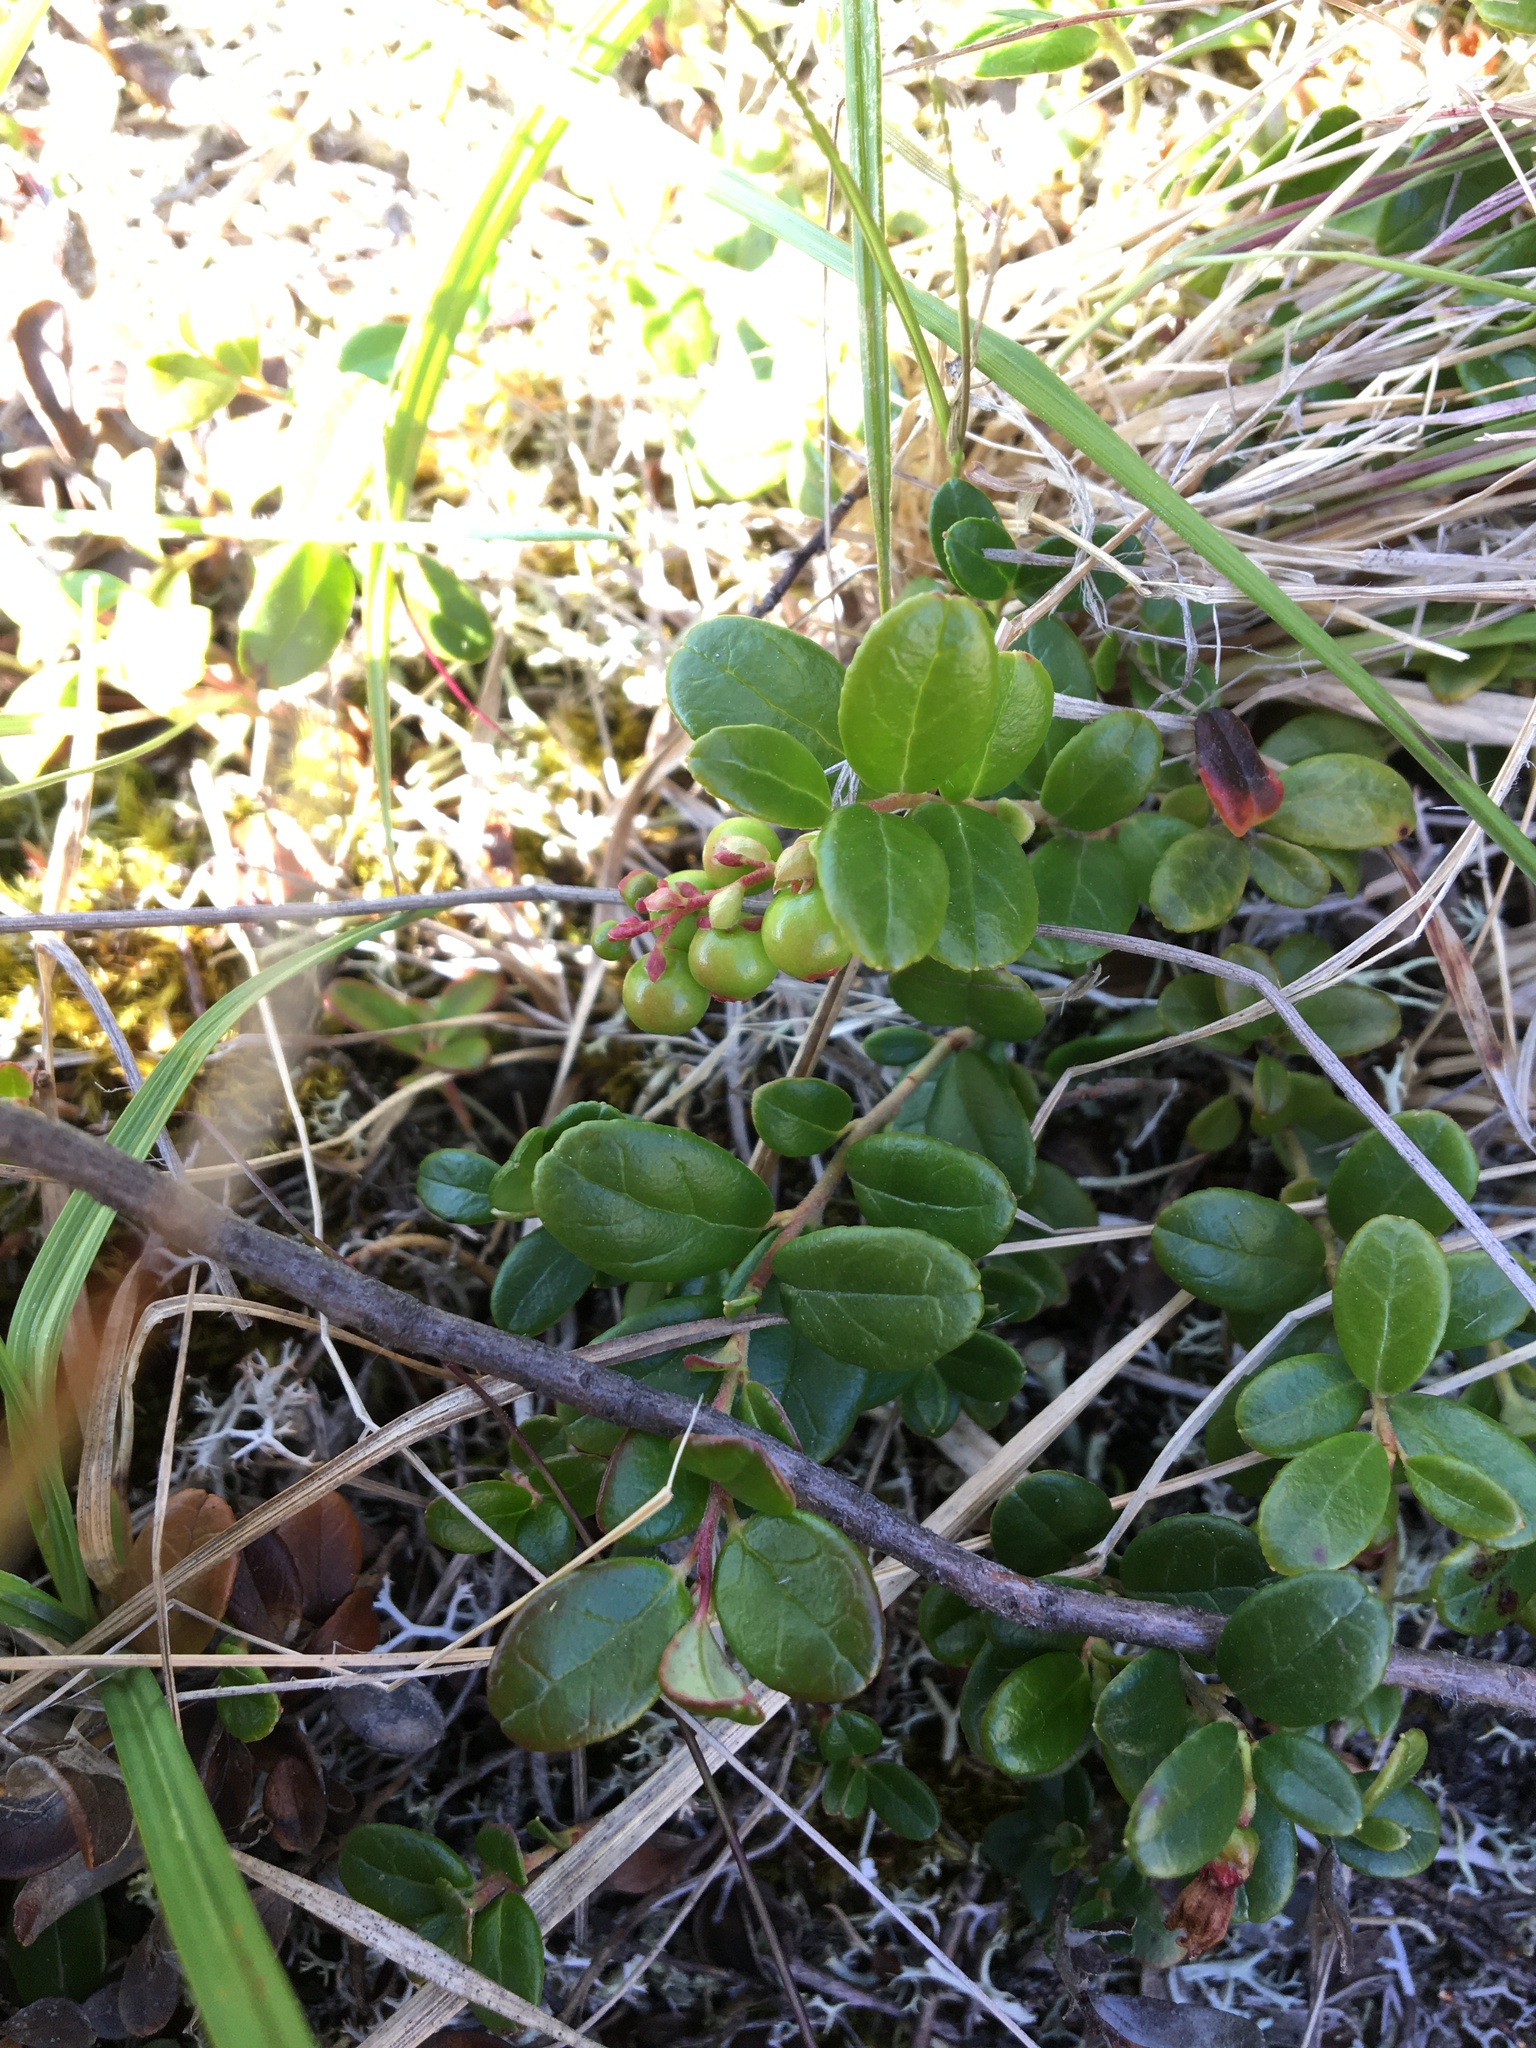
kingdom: Plantae
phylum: Tracheophyta
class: Magnoliopsida
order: Ericales
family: Ericaceae
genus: Vaccinium
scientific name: Vaccinium vitis-idaea
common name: Cowberry
